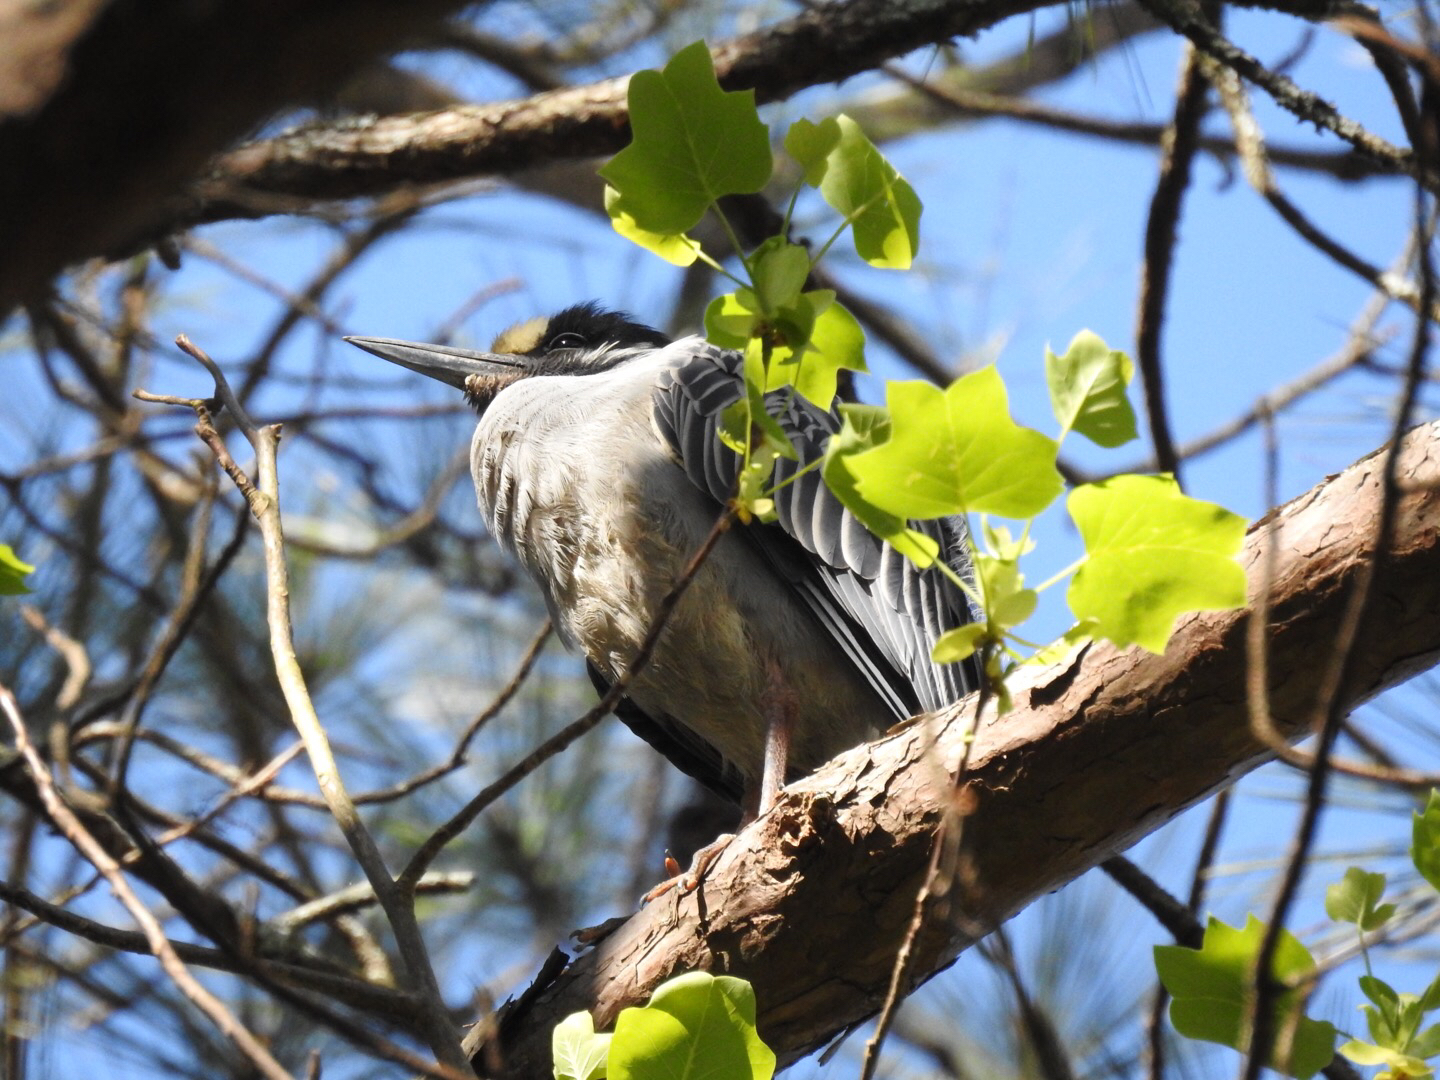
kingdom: Animalia
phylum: Chordata
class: Aves
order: Pelecaniformes
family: Ardeidae
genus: Nyctanassa
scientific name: Nyctanassa violacea
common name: Yellow-crowned night heron
